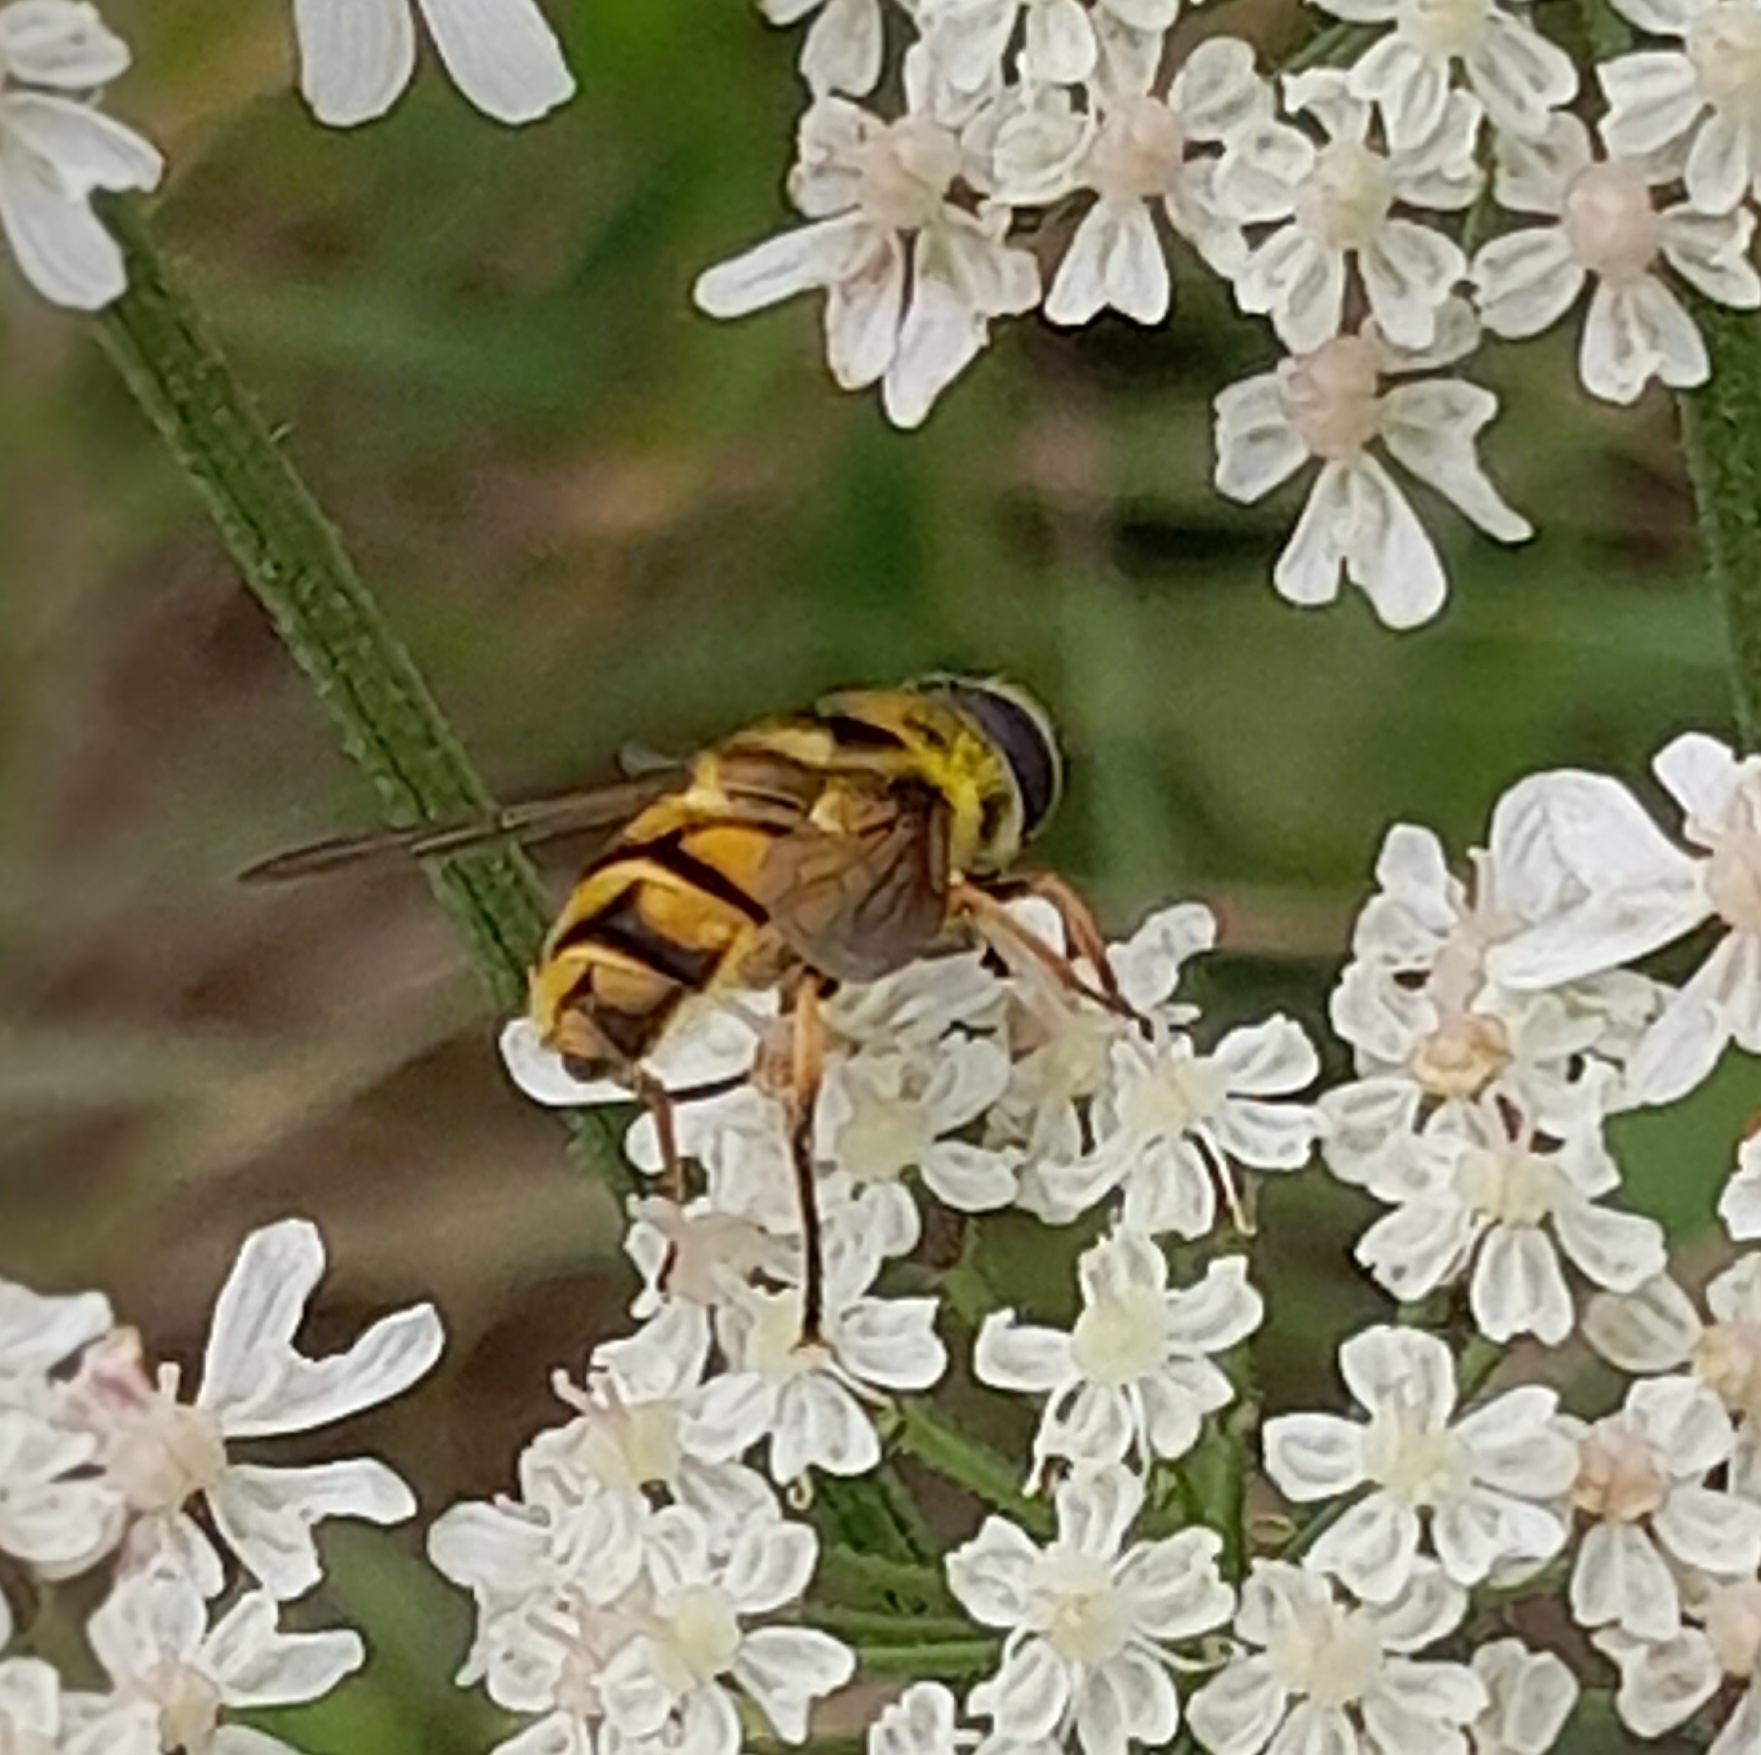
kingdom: Animalia
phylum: Arthropoda
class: Insecta
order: Diptera
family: Syrphidae
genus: Myathropa
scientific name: Myathropa florea
